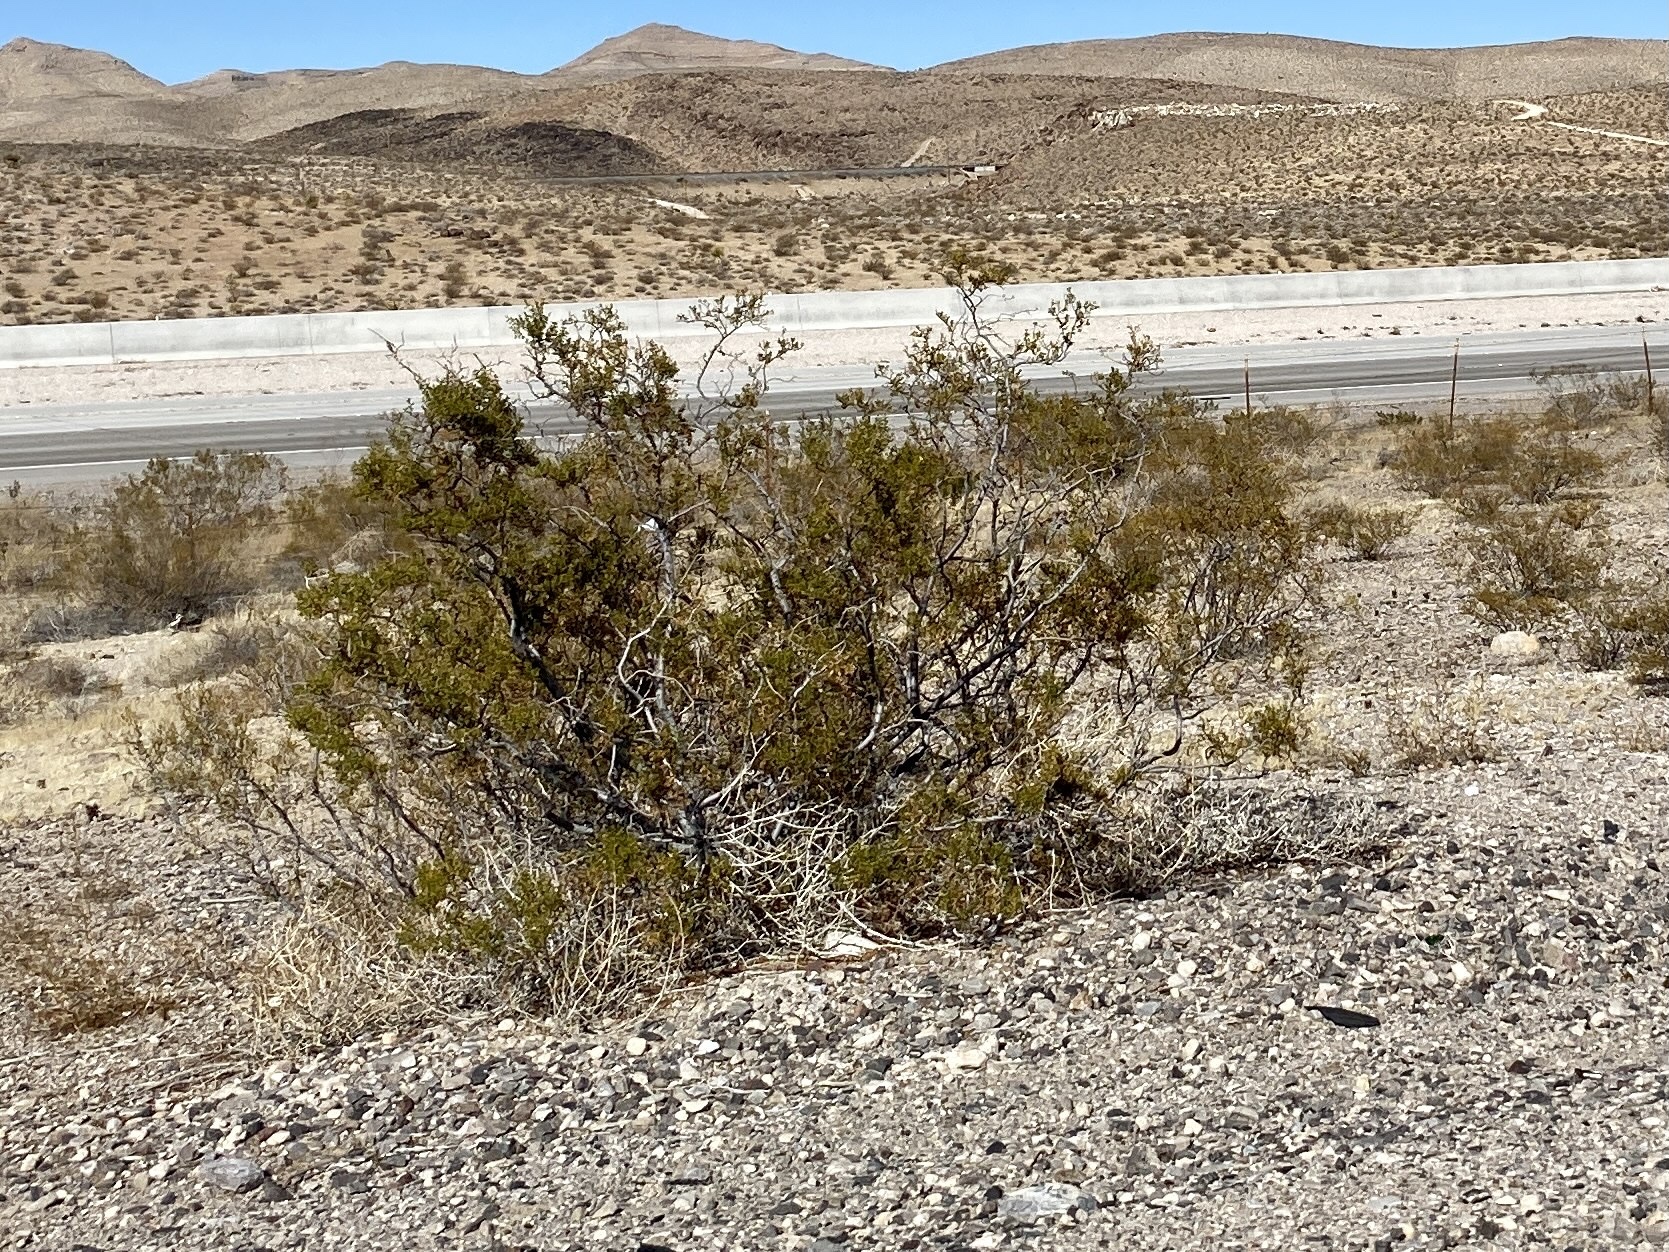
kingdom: Plantae
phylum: Tracheophyta
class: Magnoliopsida
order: Zygophyllales
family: Zygophyllaceae
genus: Larrea
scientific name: Larrea tridentata
